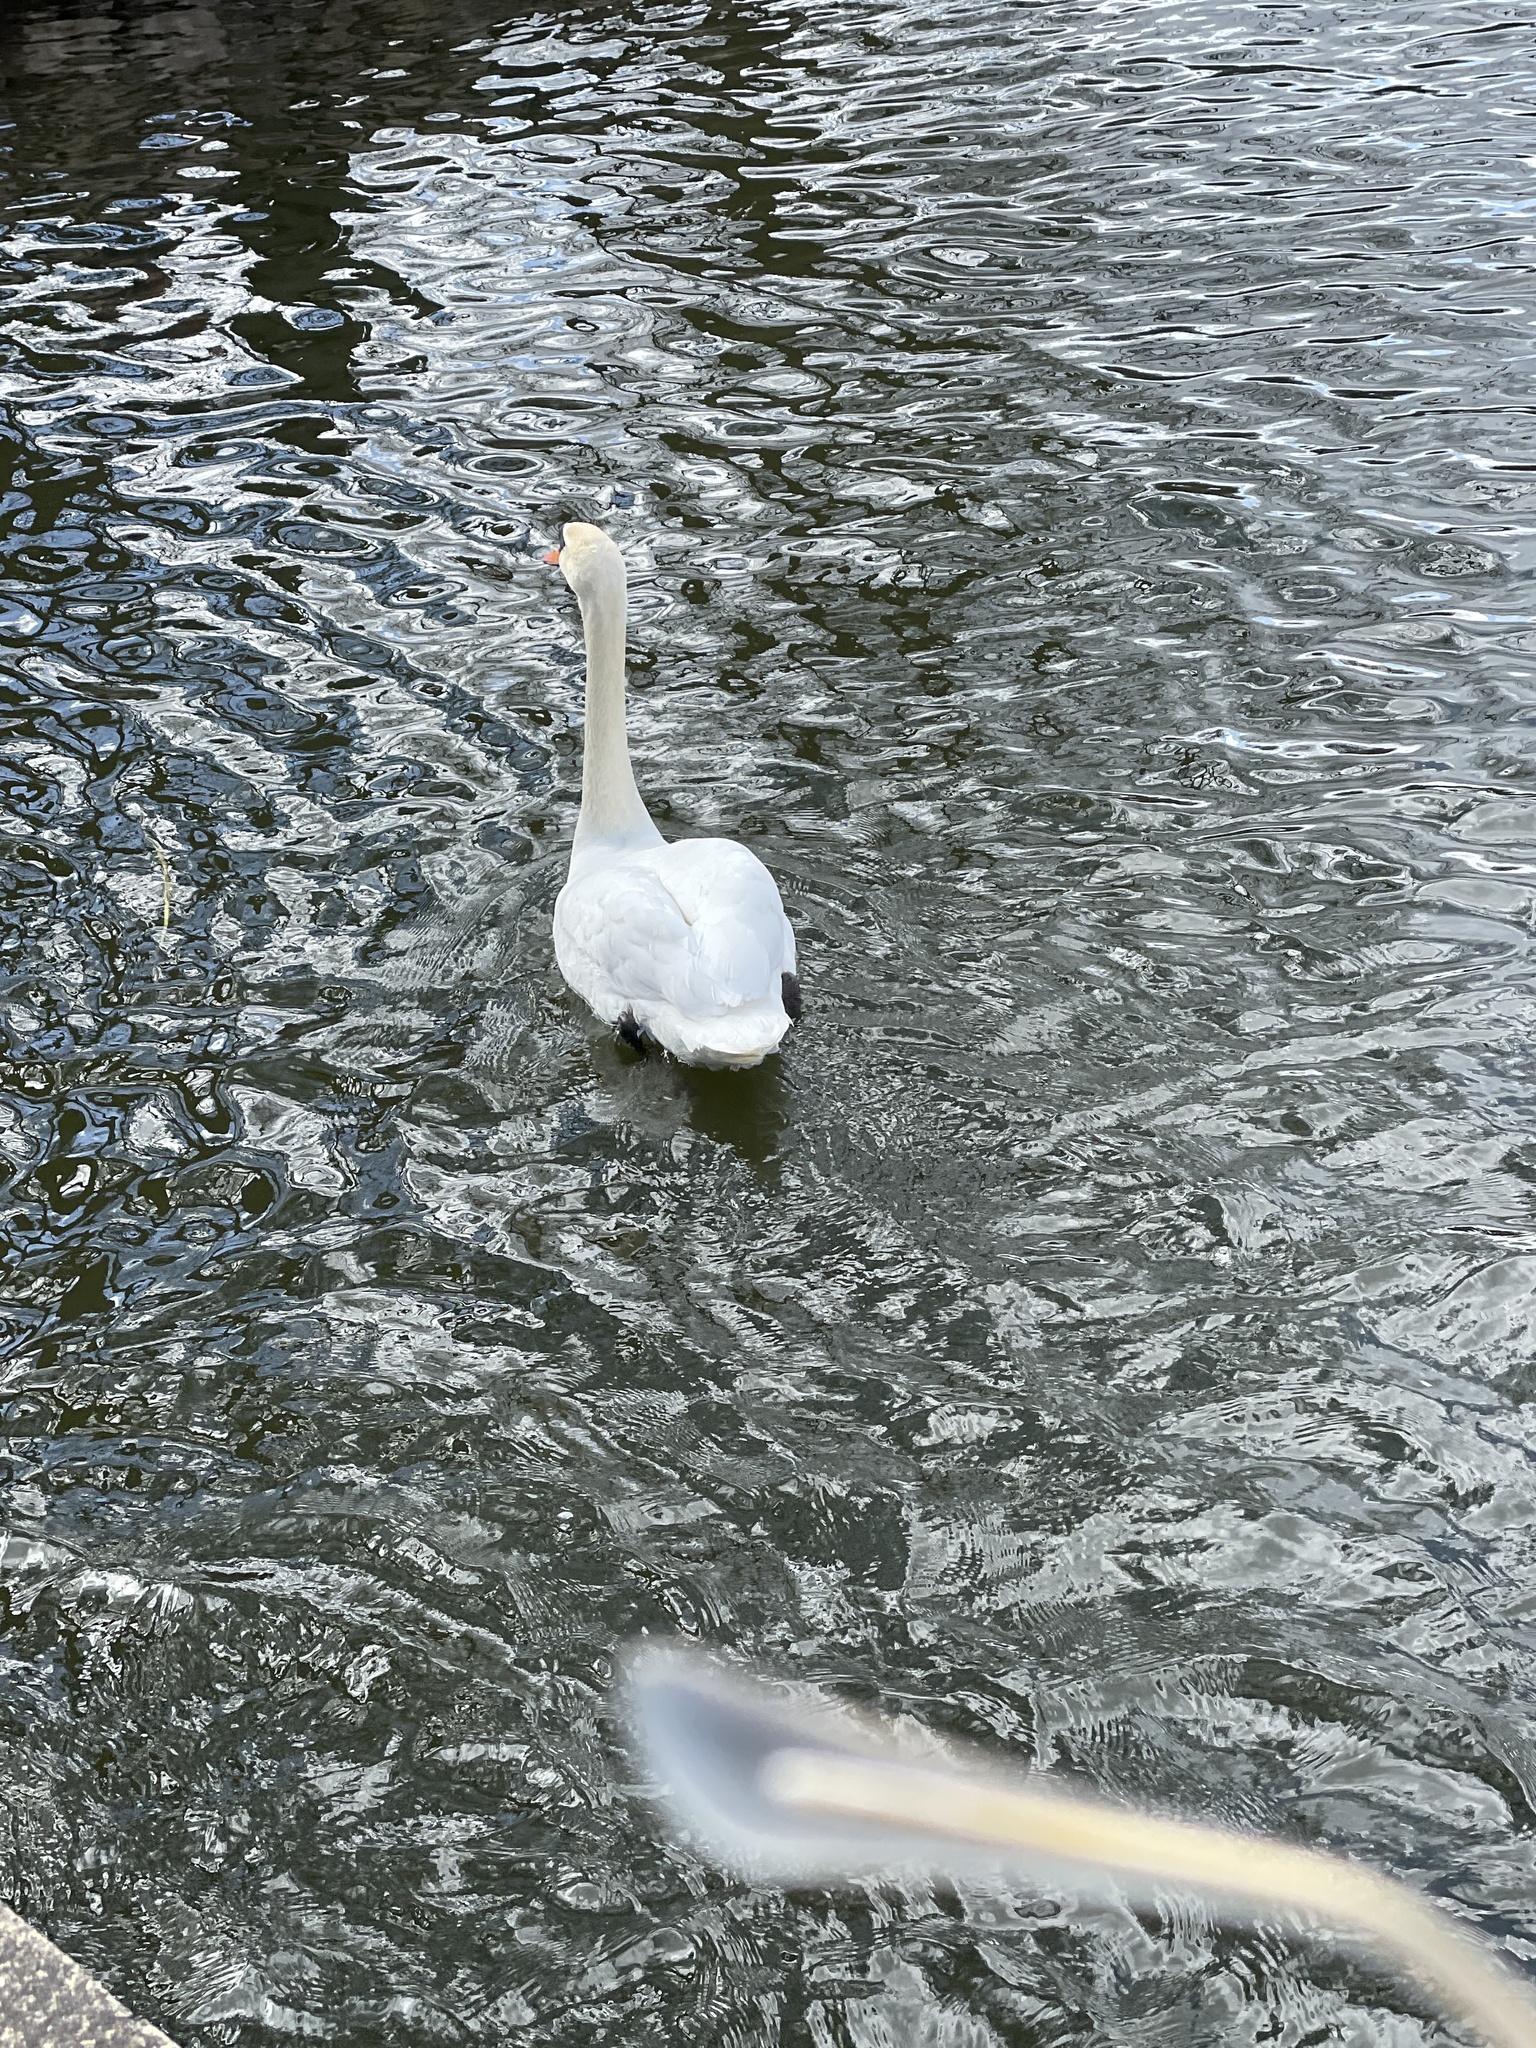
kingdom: Animalia
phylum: Chordata
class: Aves
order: Anseriformes
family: Anatidae
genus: Cygnus
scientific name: Cygnus olor
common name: Mute swan
